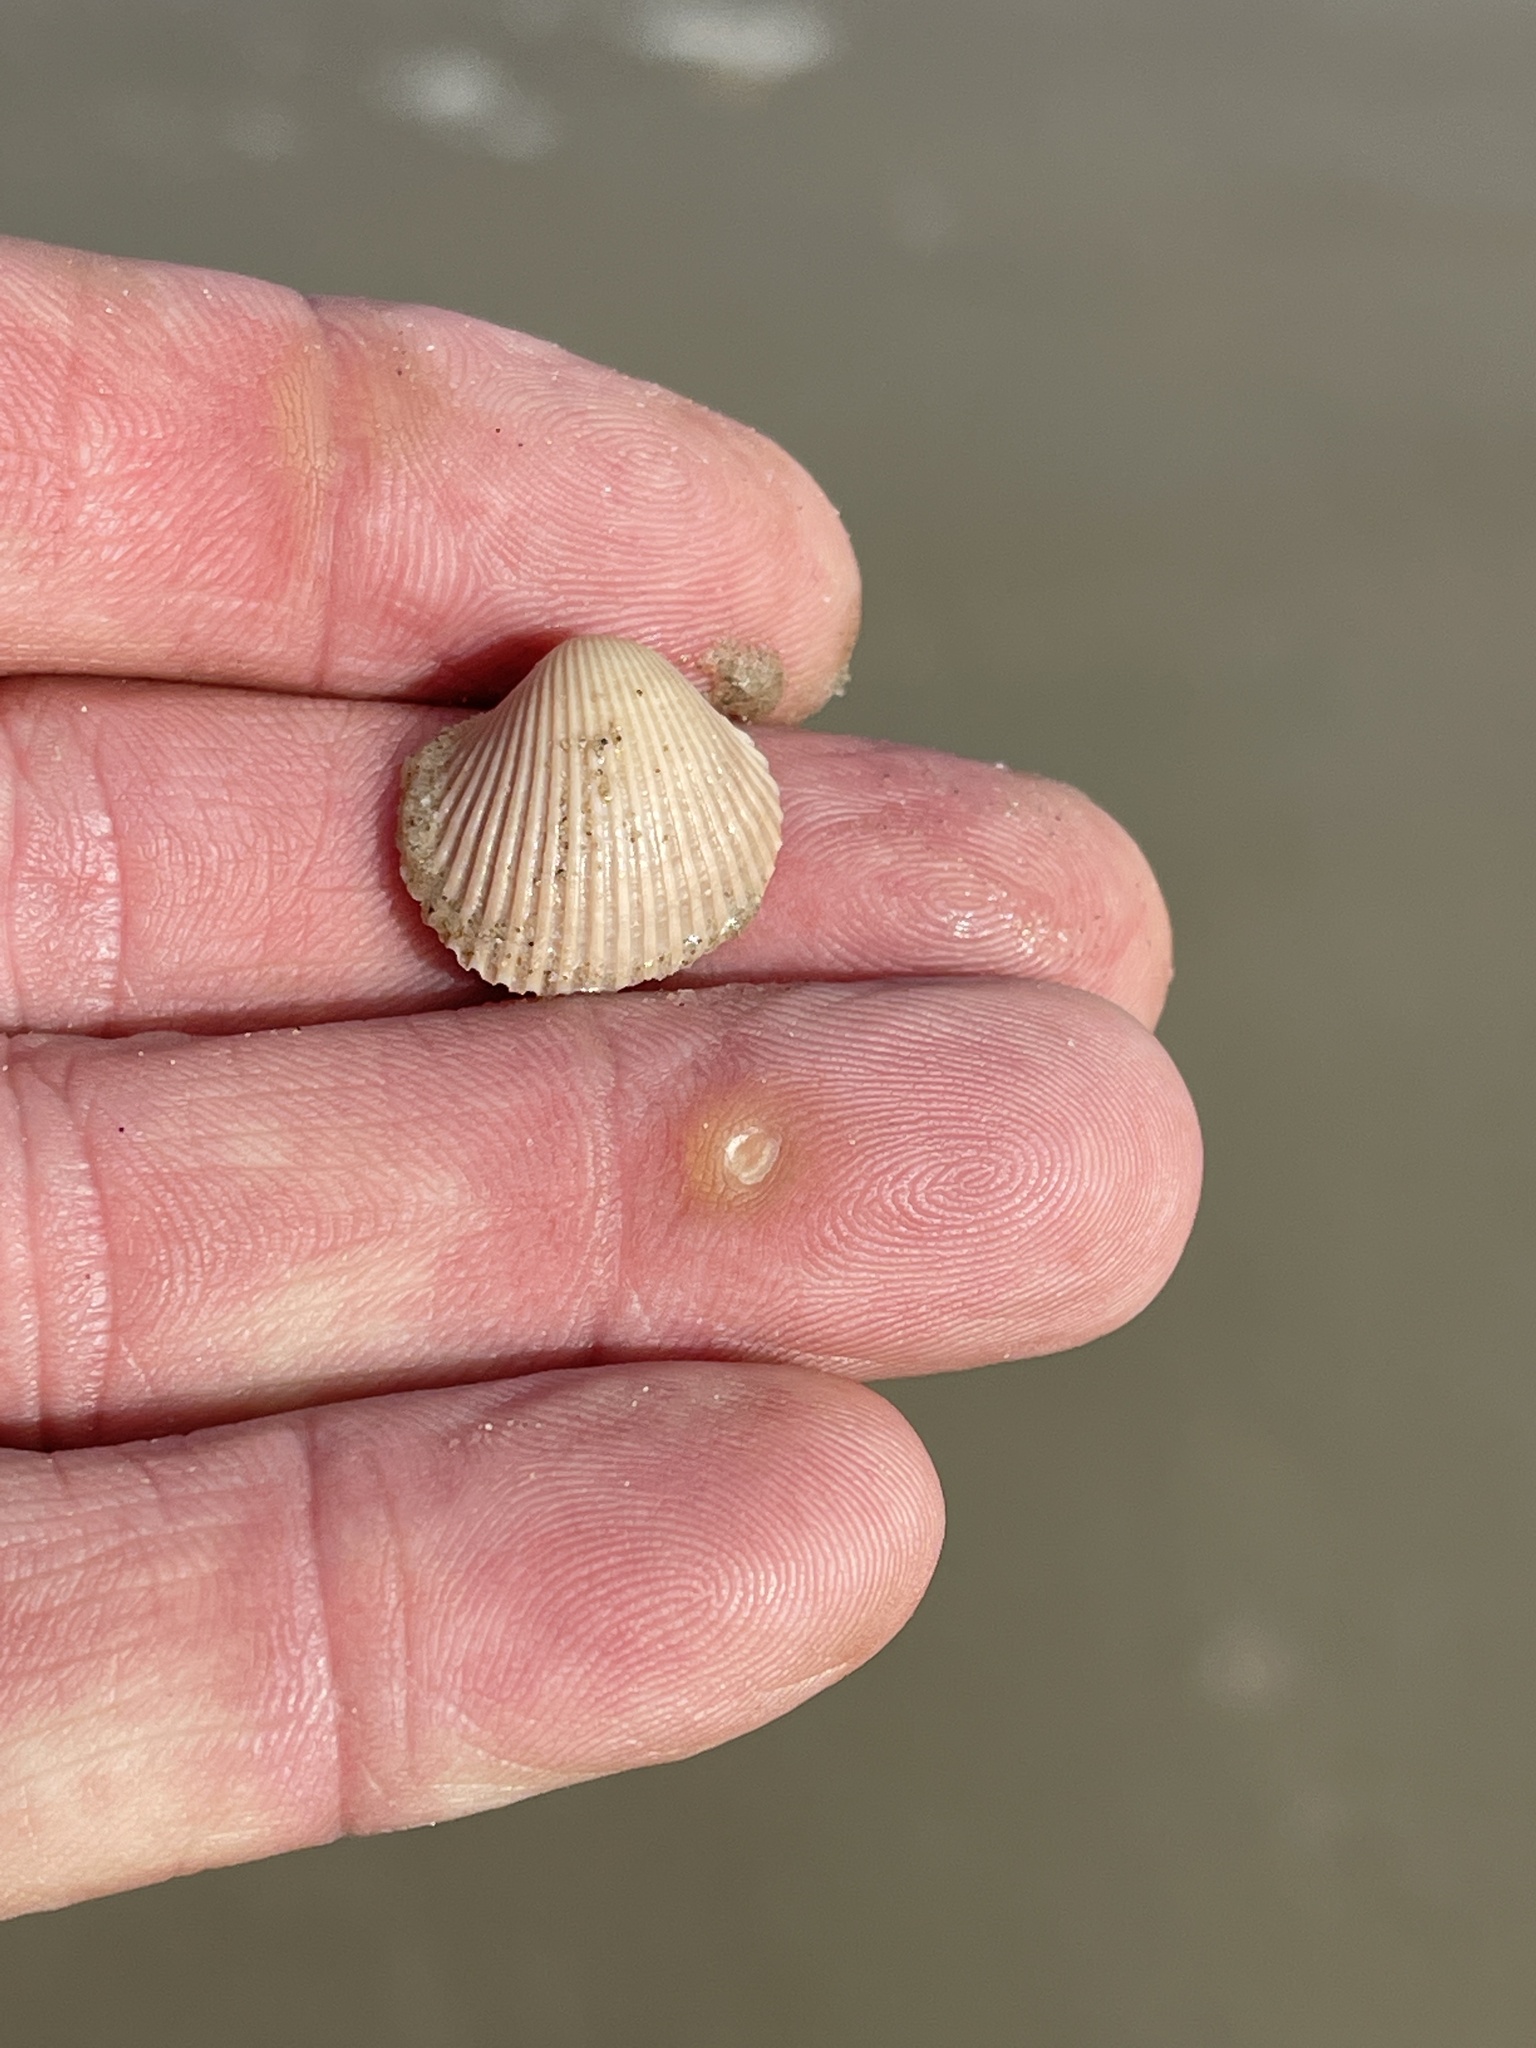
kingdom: Animalia
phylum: Mollusca
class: Bivalvia
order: Arcida
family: Arcidae
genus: Lunarca
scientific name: Lunarca ovalis
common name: Blood ark
